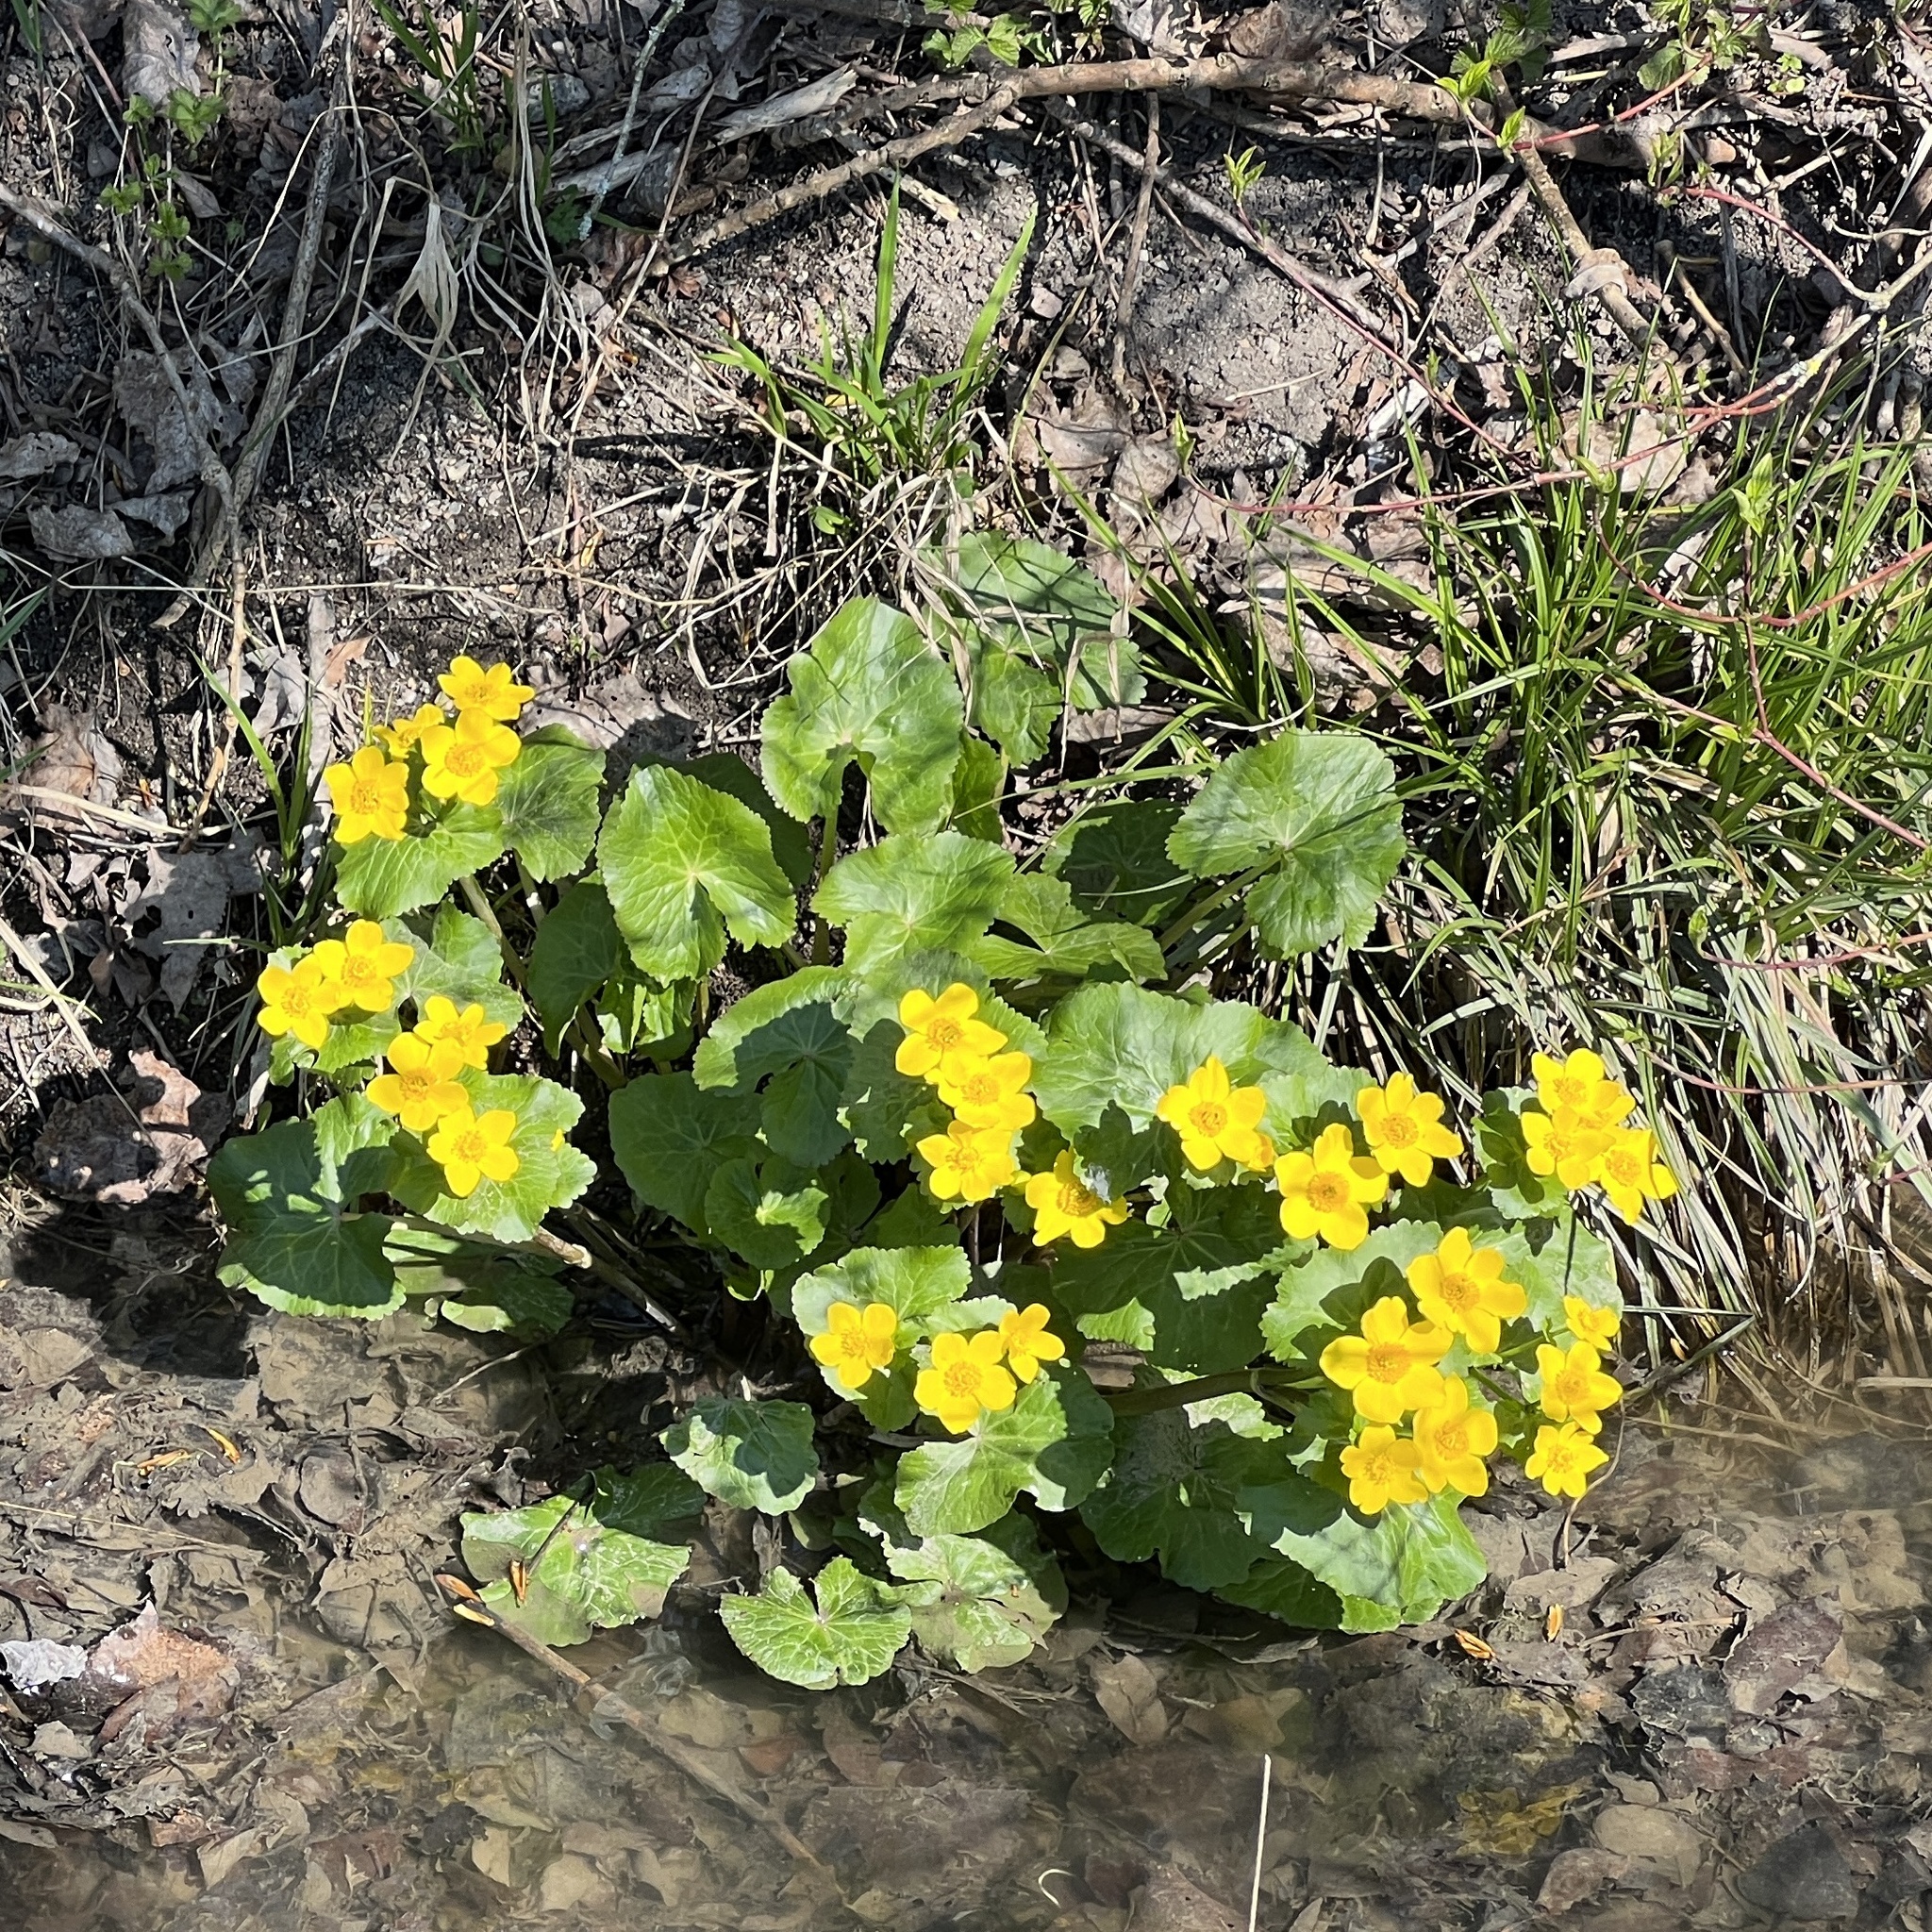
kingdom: Plantae
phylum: Tracheophyta
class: Magnoliopsida
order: Ranunculales
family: Ranunculaceae
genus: Caltha
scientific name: Caltha palustris
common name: Marsh marigold
